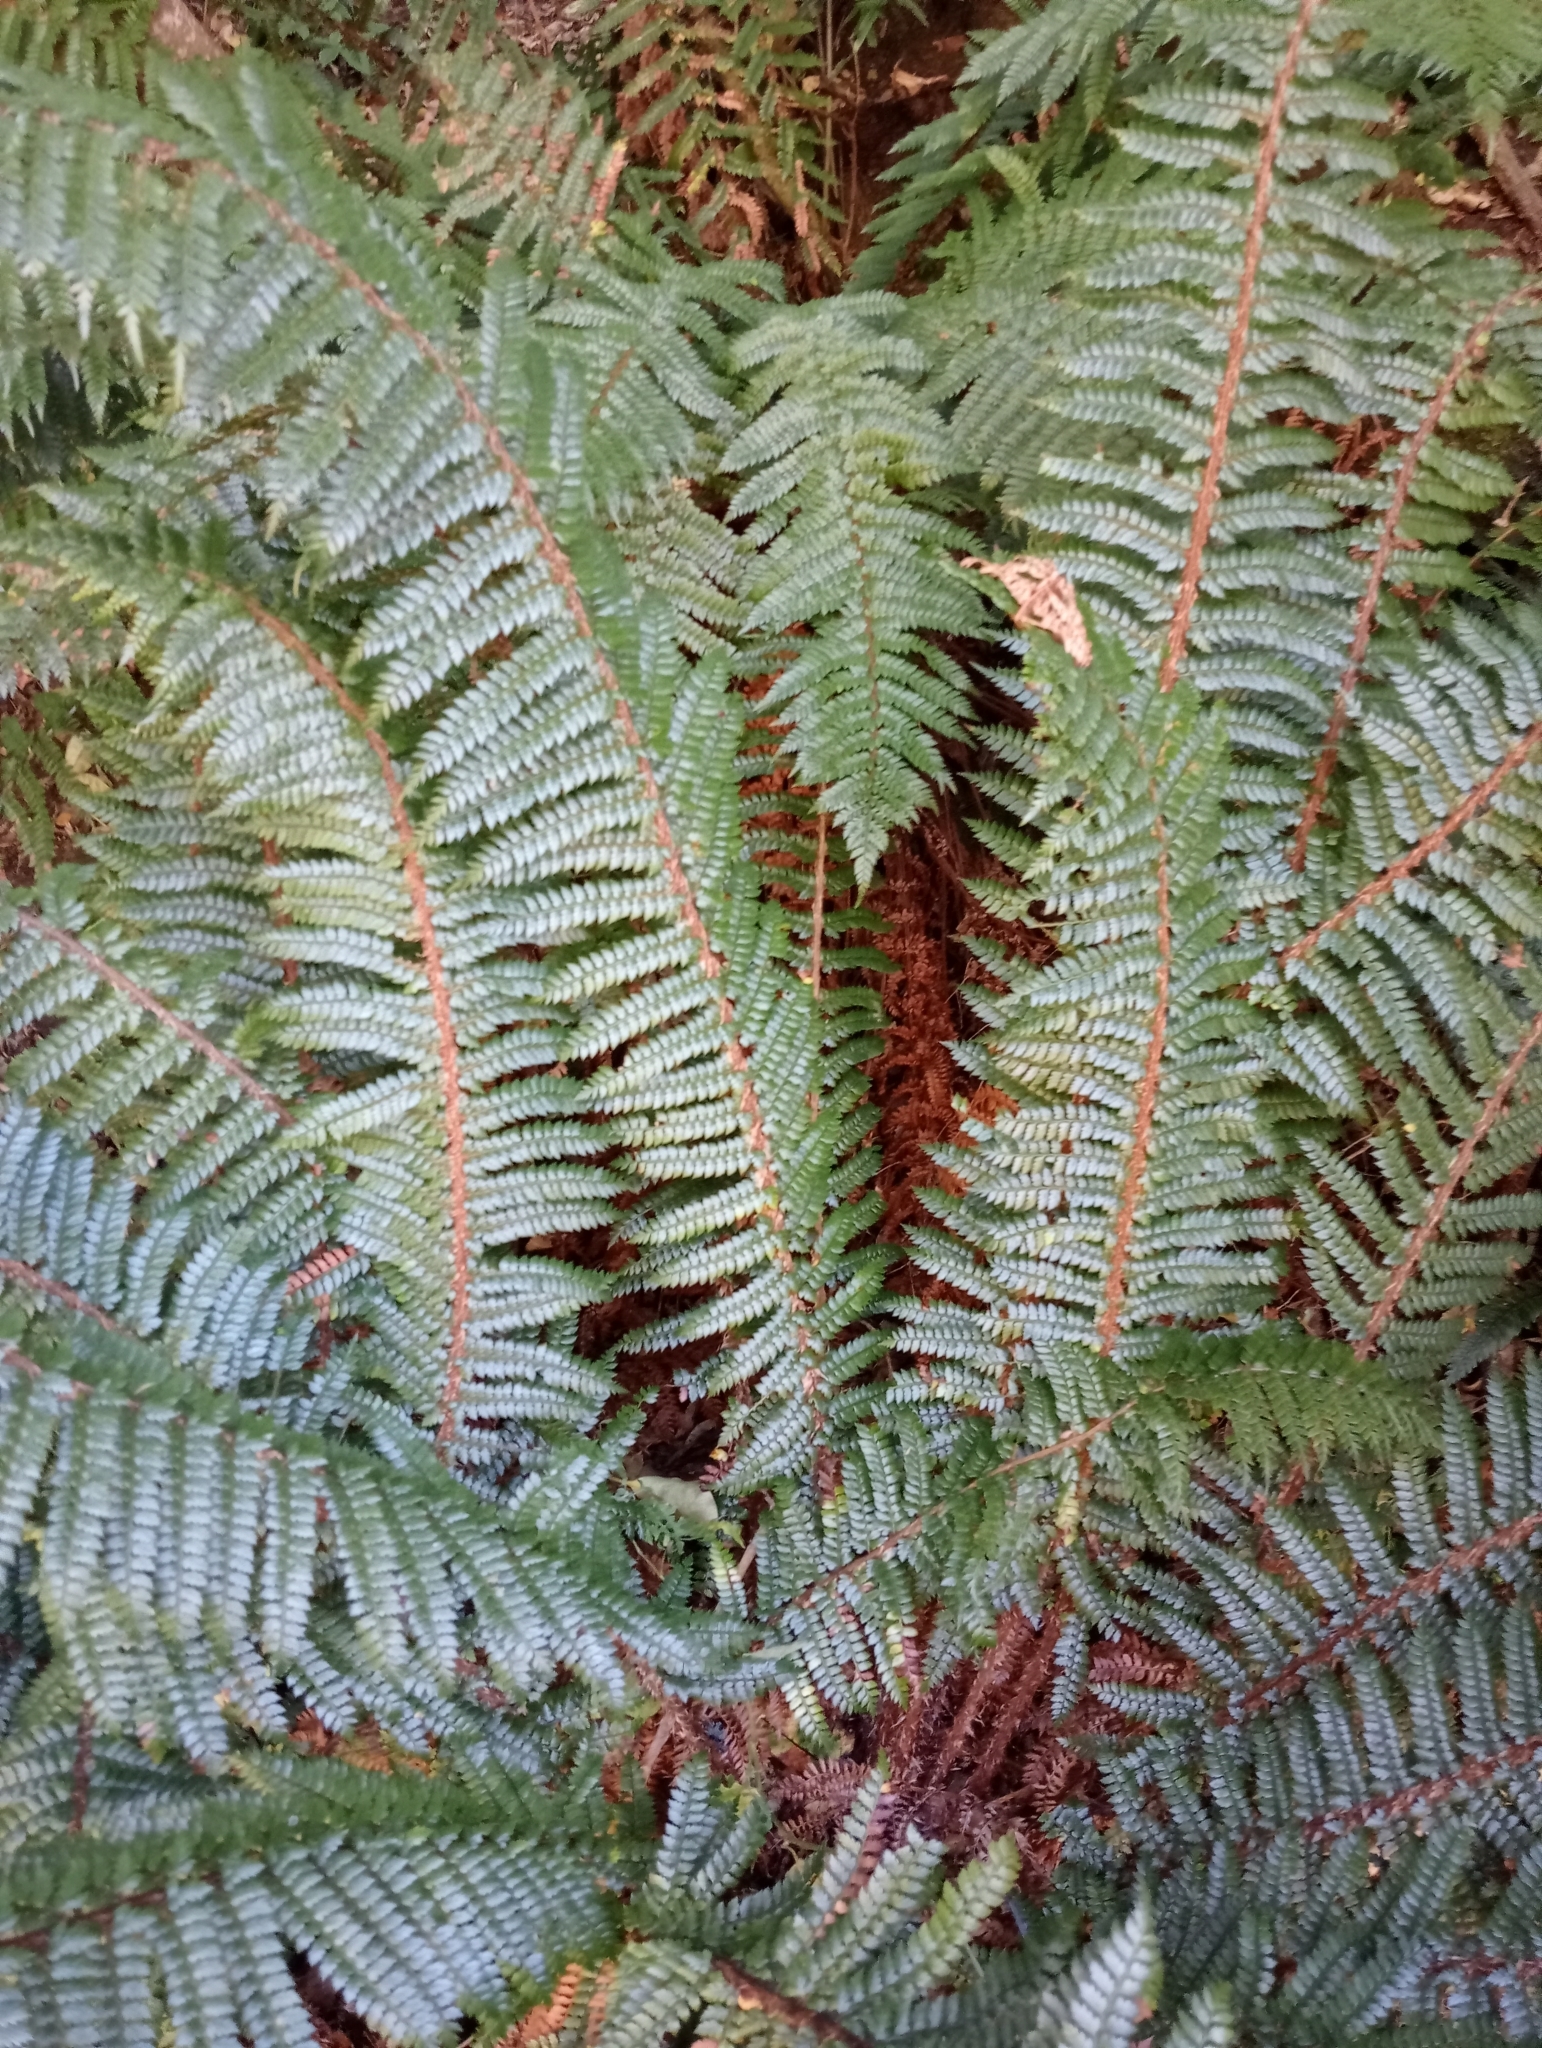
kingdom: Plantae
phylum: Tracheophyta
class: Polypodiopsida
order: Polypodiales
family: Dryopteridaceae
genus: Polystichum
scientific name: Polystichum vestitum
